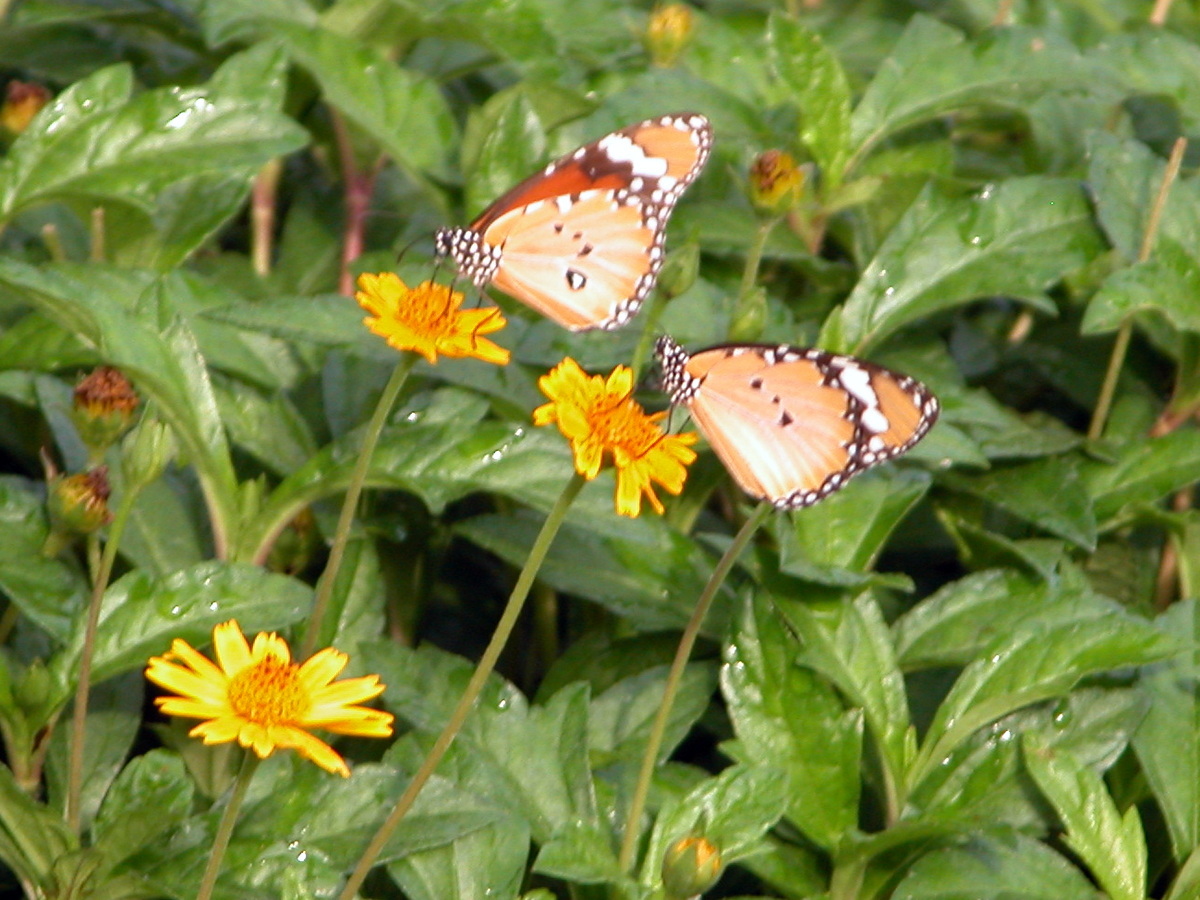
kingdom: Animalia
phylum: Arthropoda
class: Insecta
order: Lepidoptera
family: Nymphalidae
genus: Danaus
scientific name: Danaus chrysippus
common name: Plain tiger
